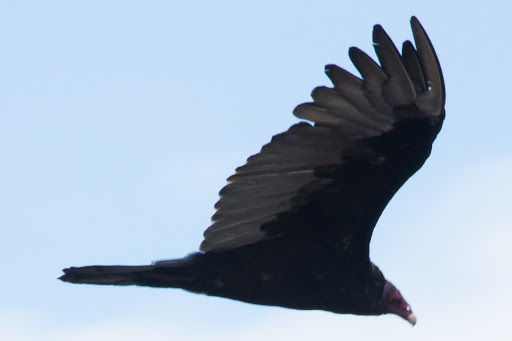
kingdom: Animalia
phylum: Chordata
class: Aves
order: Accipitriformes
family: Cathartidae
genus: Cathartes
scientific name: Cathartes aura
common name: Turkey vulture
